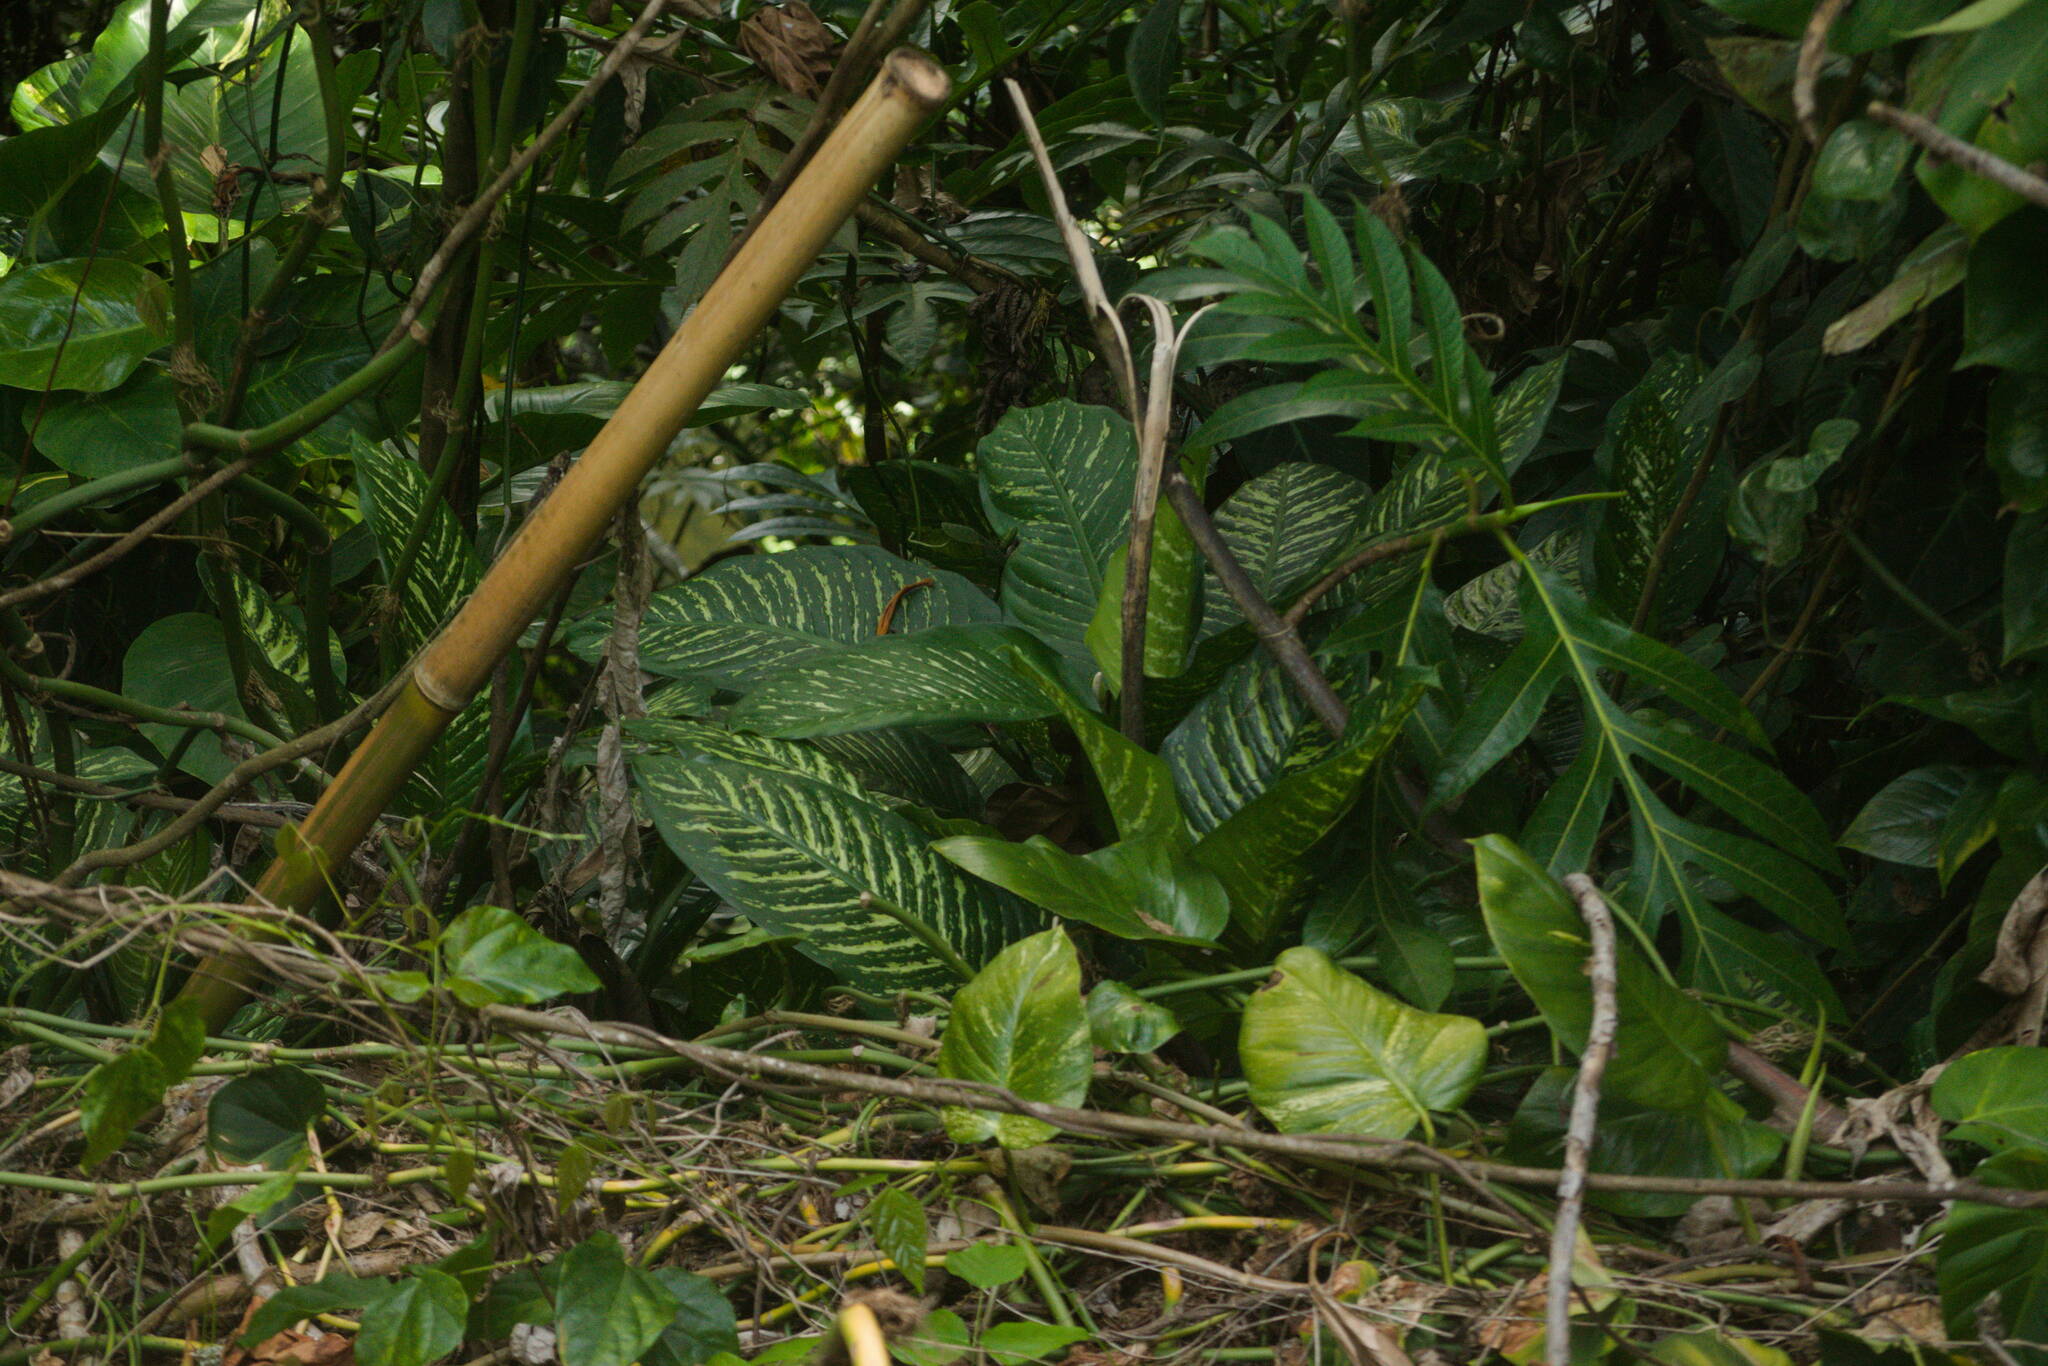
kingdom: Plantae
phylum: Tracheophyta
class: Liliopsida
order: Alismatales
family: Araceae
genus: Dieffenbachia
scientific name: Dieffenbachia seguine
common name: Dumbcane
